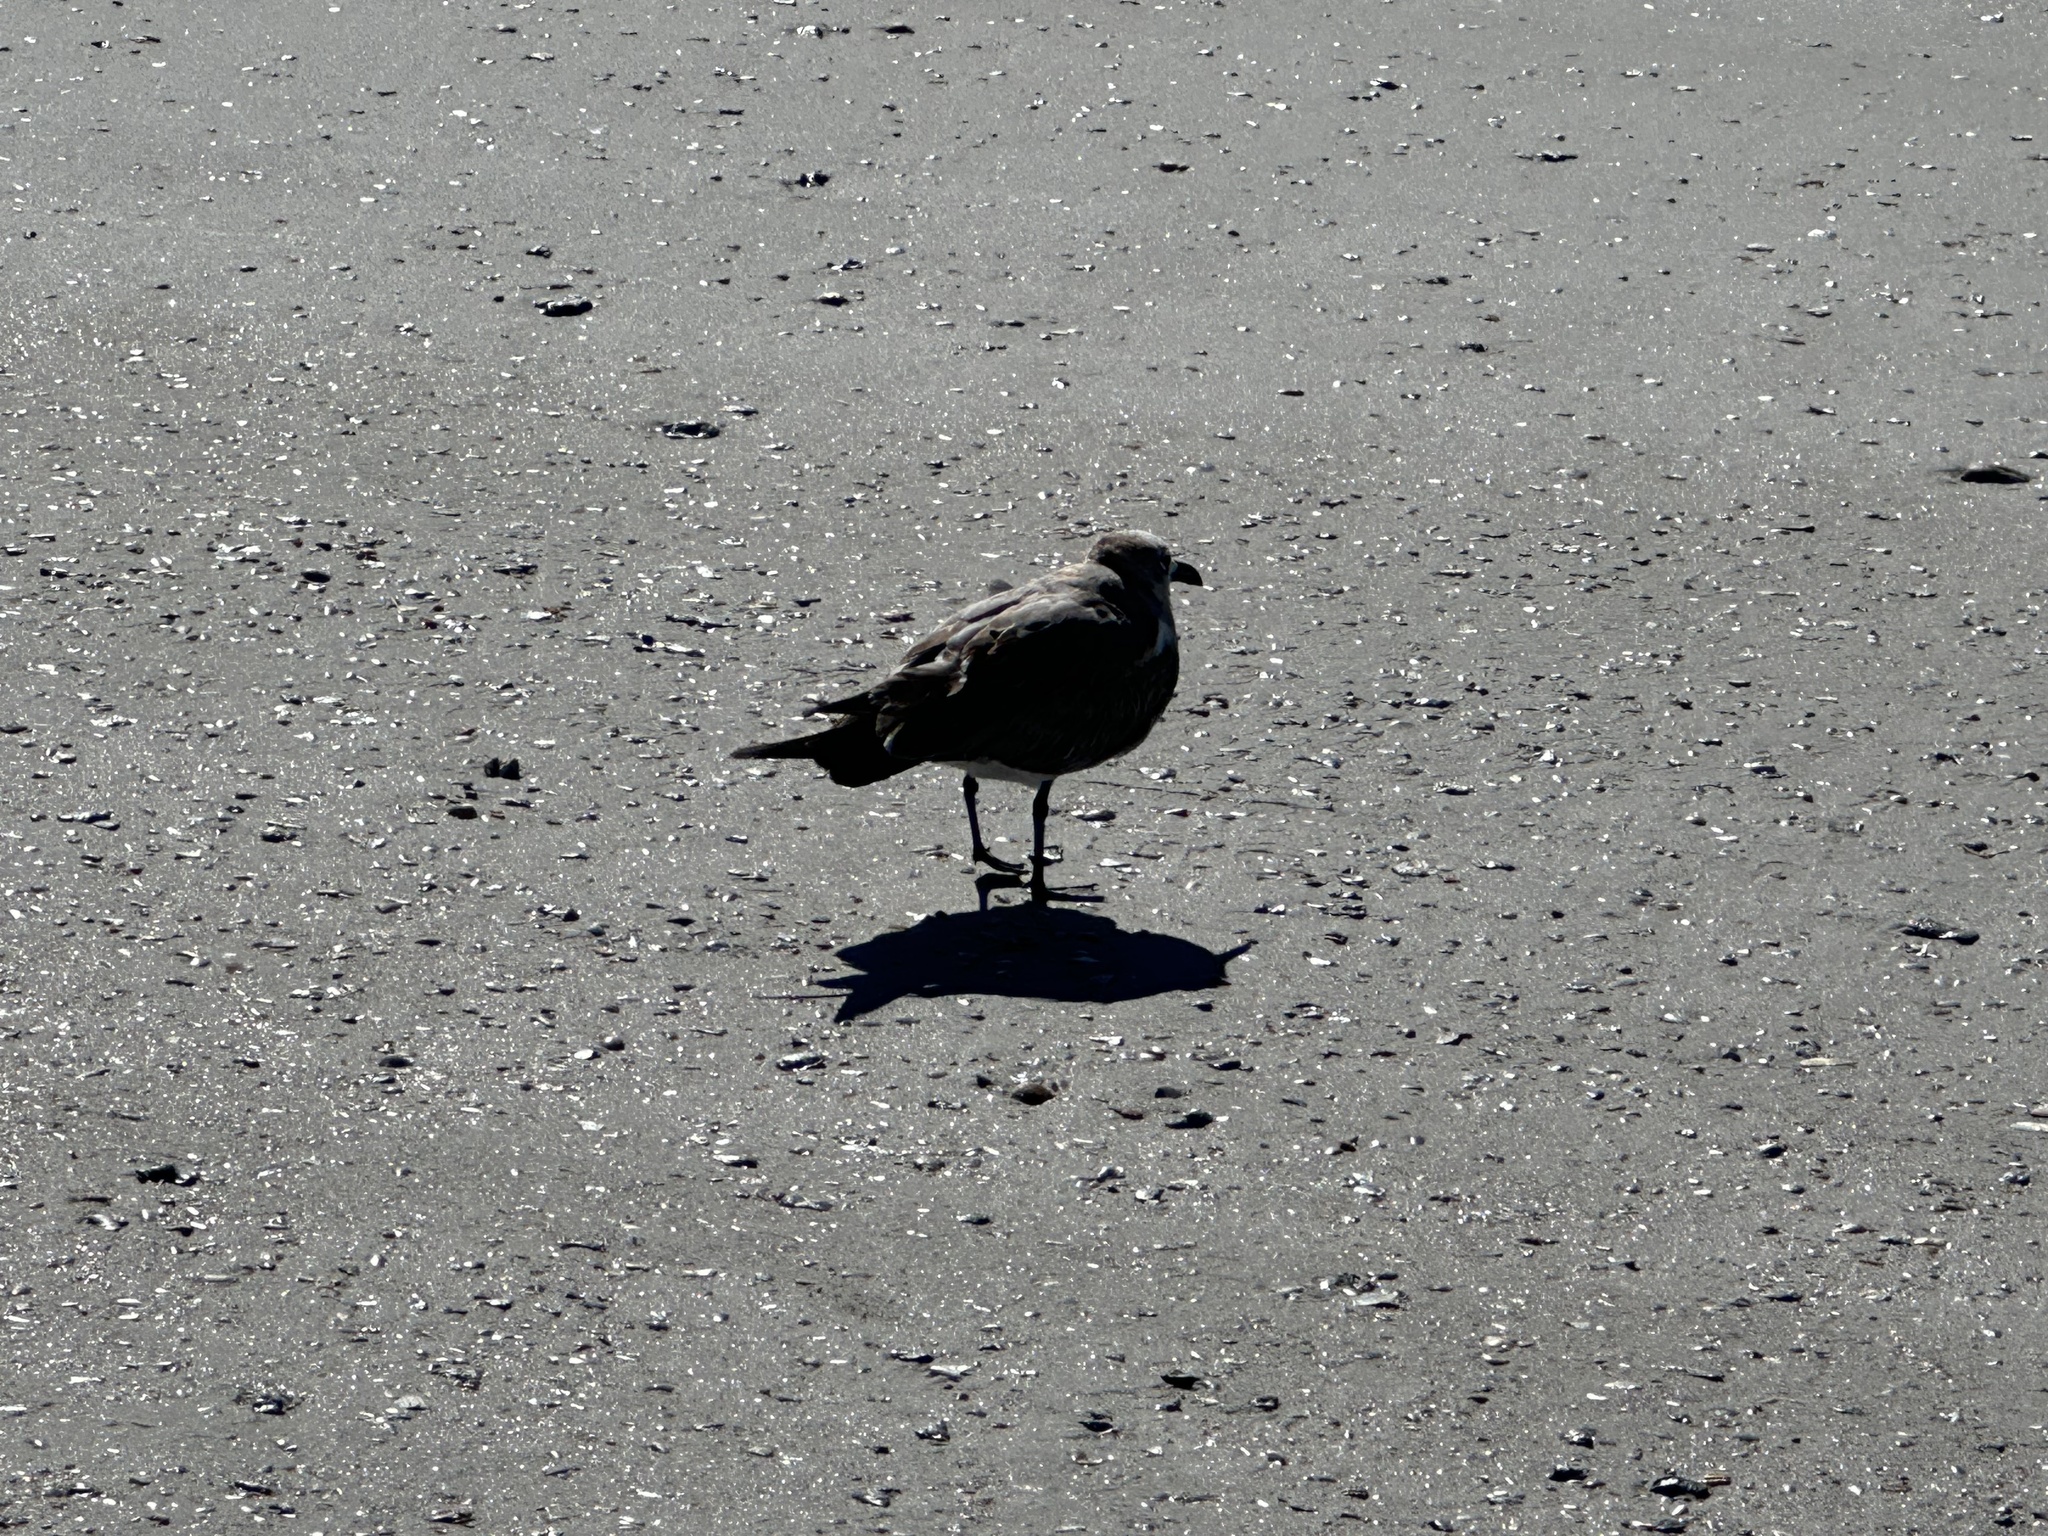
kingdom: Animalia
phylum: Chordata
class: Aves
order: Charadriiformes
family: Laridae
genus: Leucophaeus
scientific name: Leucophaeus atricilla
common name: Laughing gull
